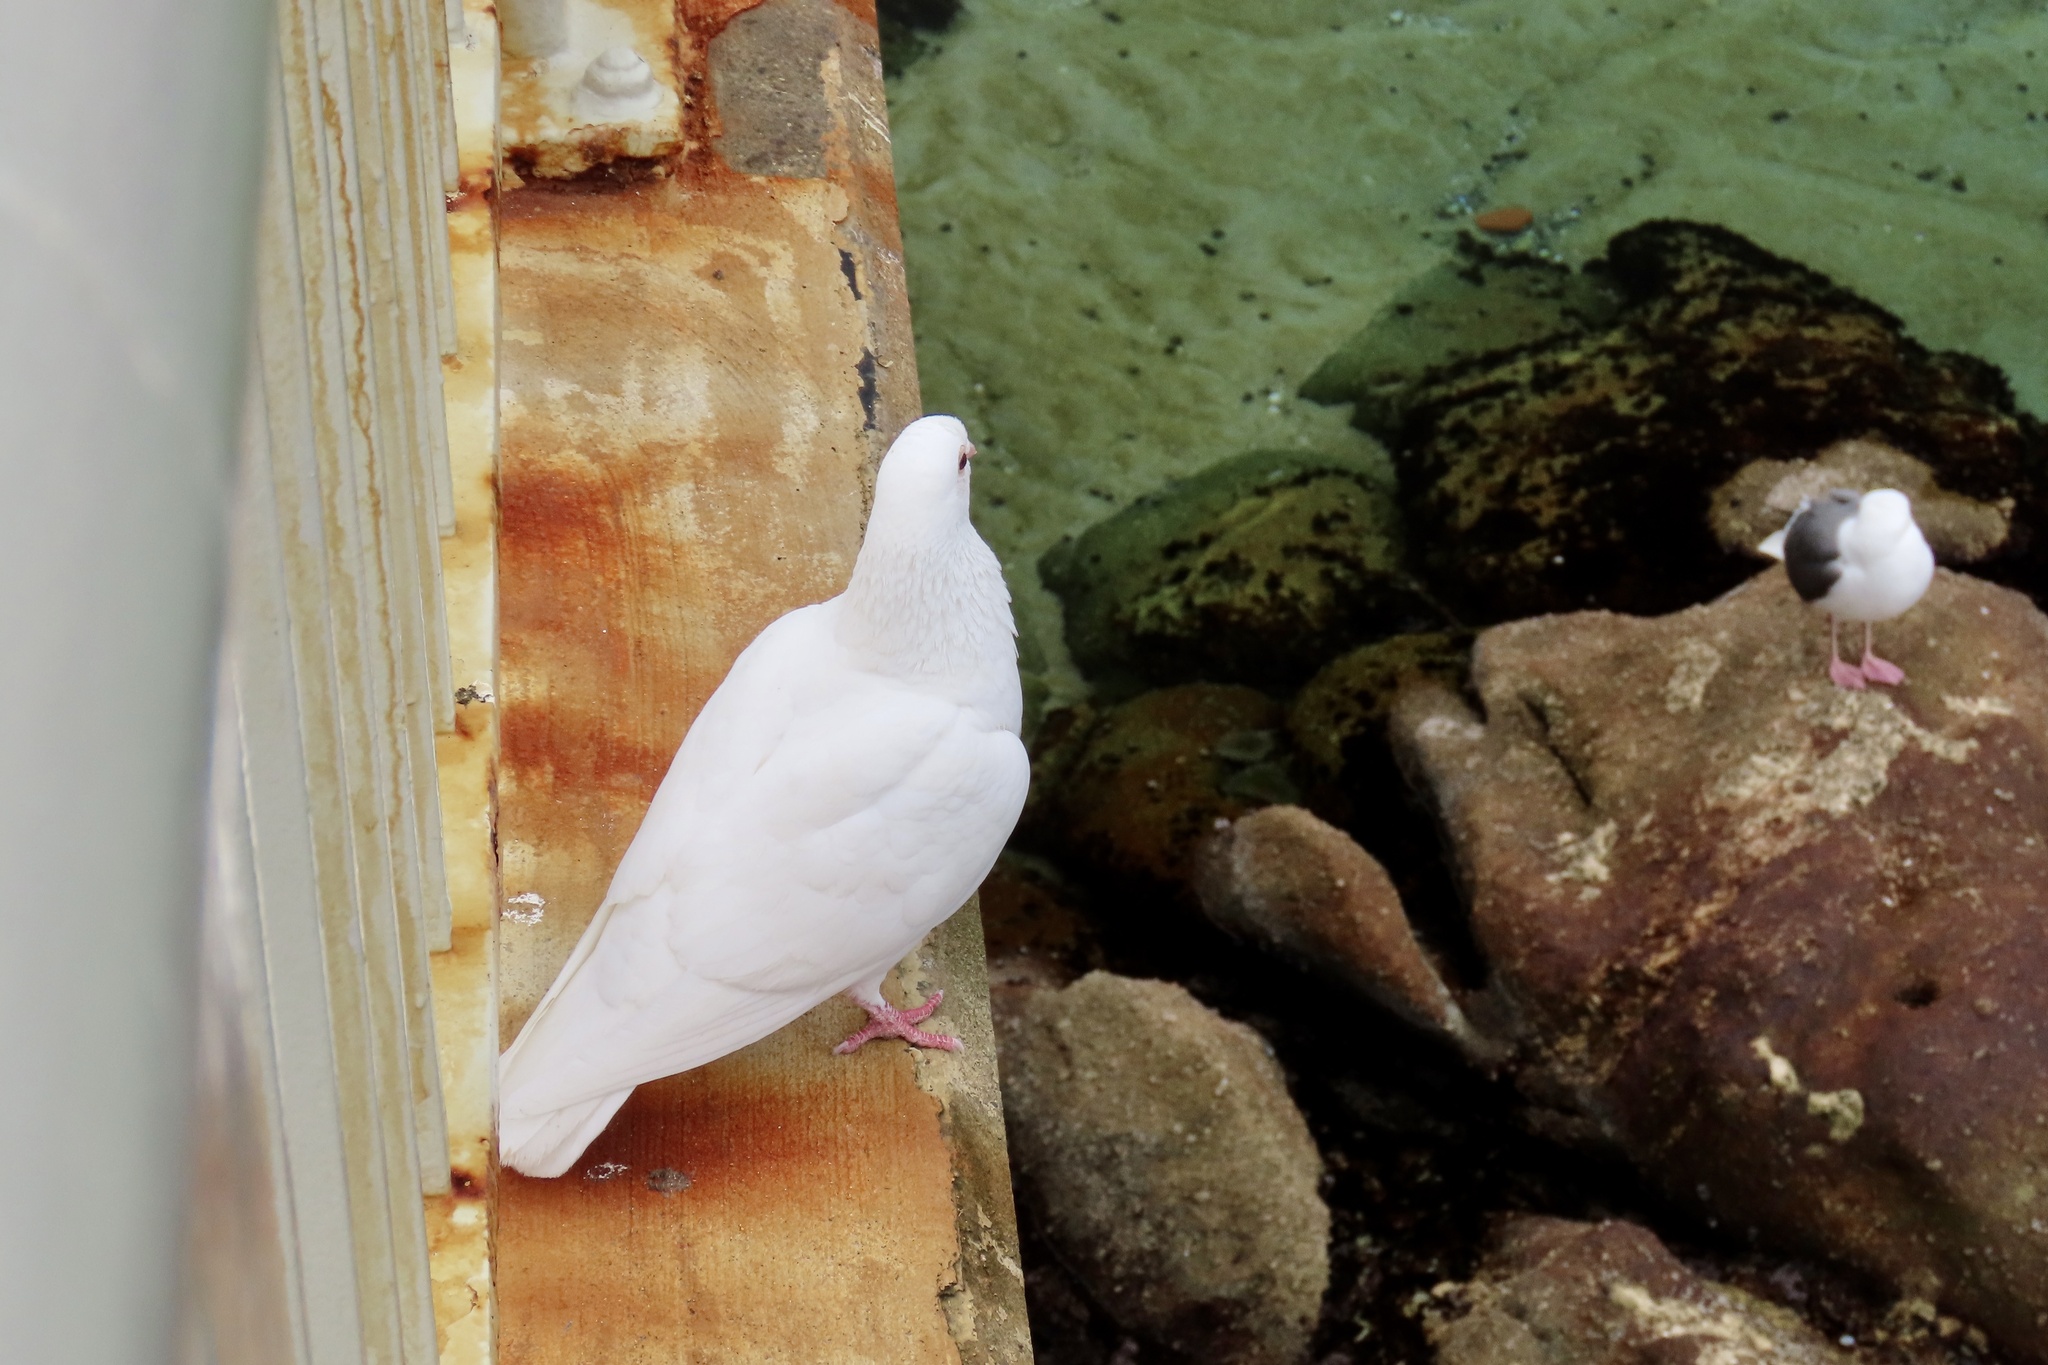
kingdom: Animalia
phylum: Chordata
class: Aves
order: Columbiformes
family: Columbidae
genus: Columba
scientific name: Columba livia
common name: Rock pigeon
